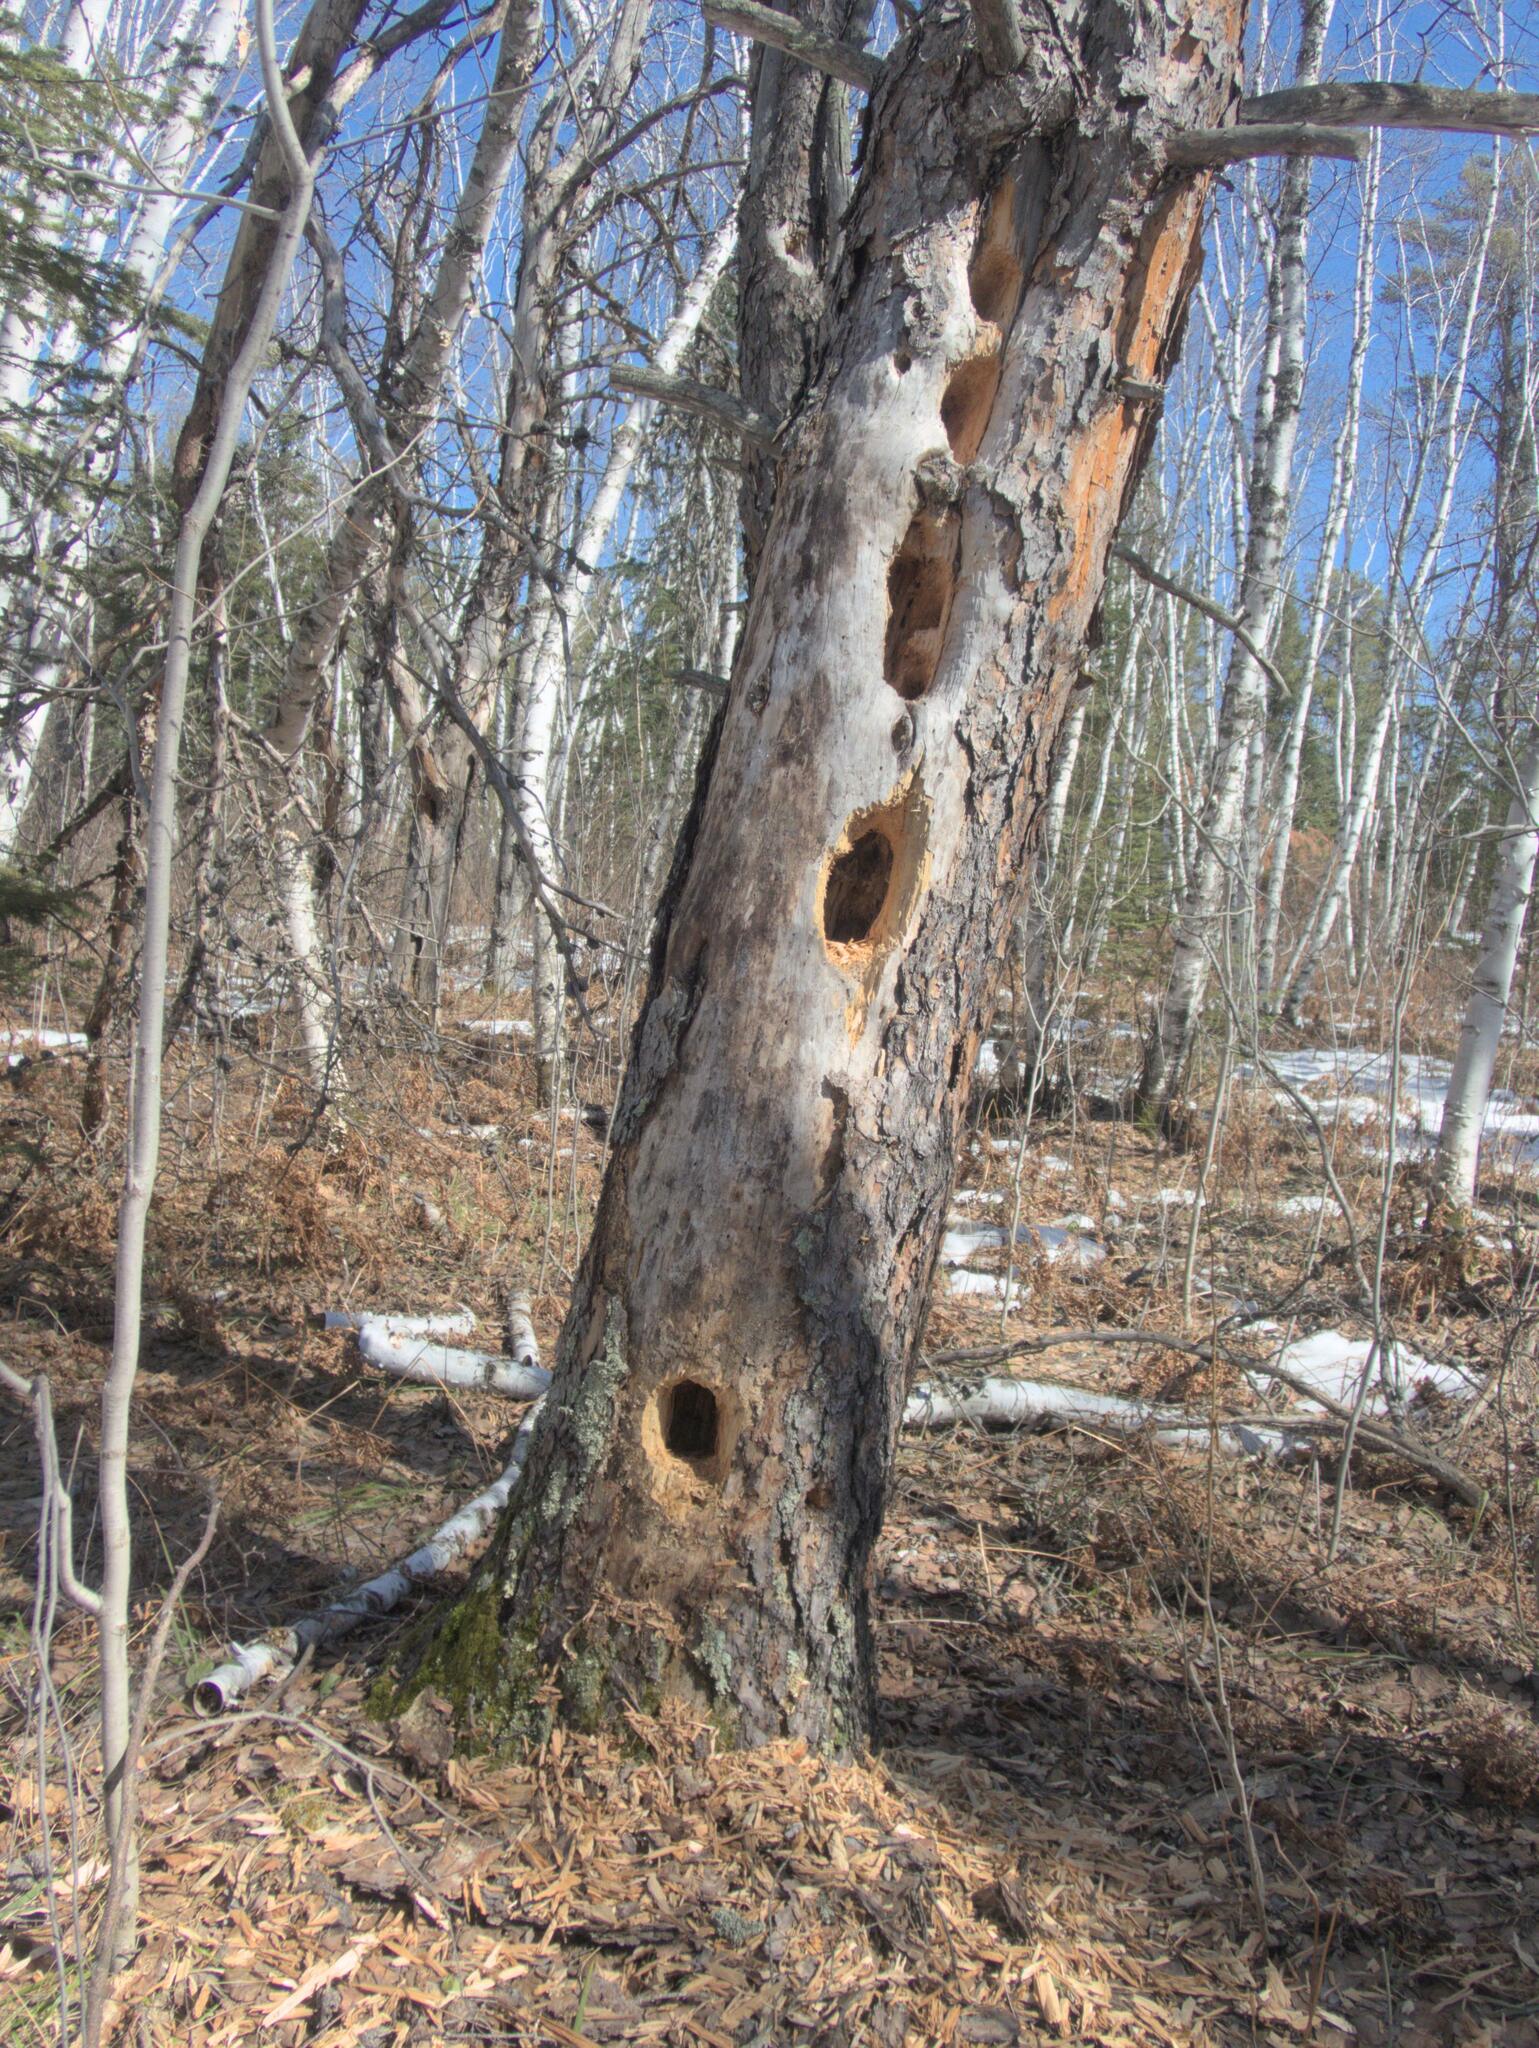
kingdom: Animalia
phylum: Chordata
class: Aves
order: Piciformes
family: Picidae
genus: Dryocopus
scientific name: Dryocopus pileatus
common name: Pileated woodpecker
